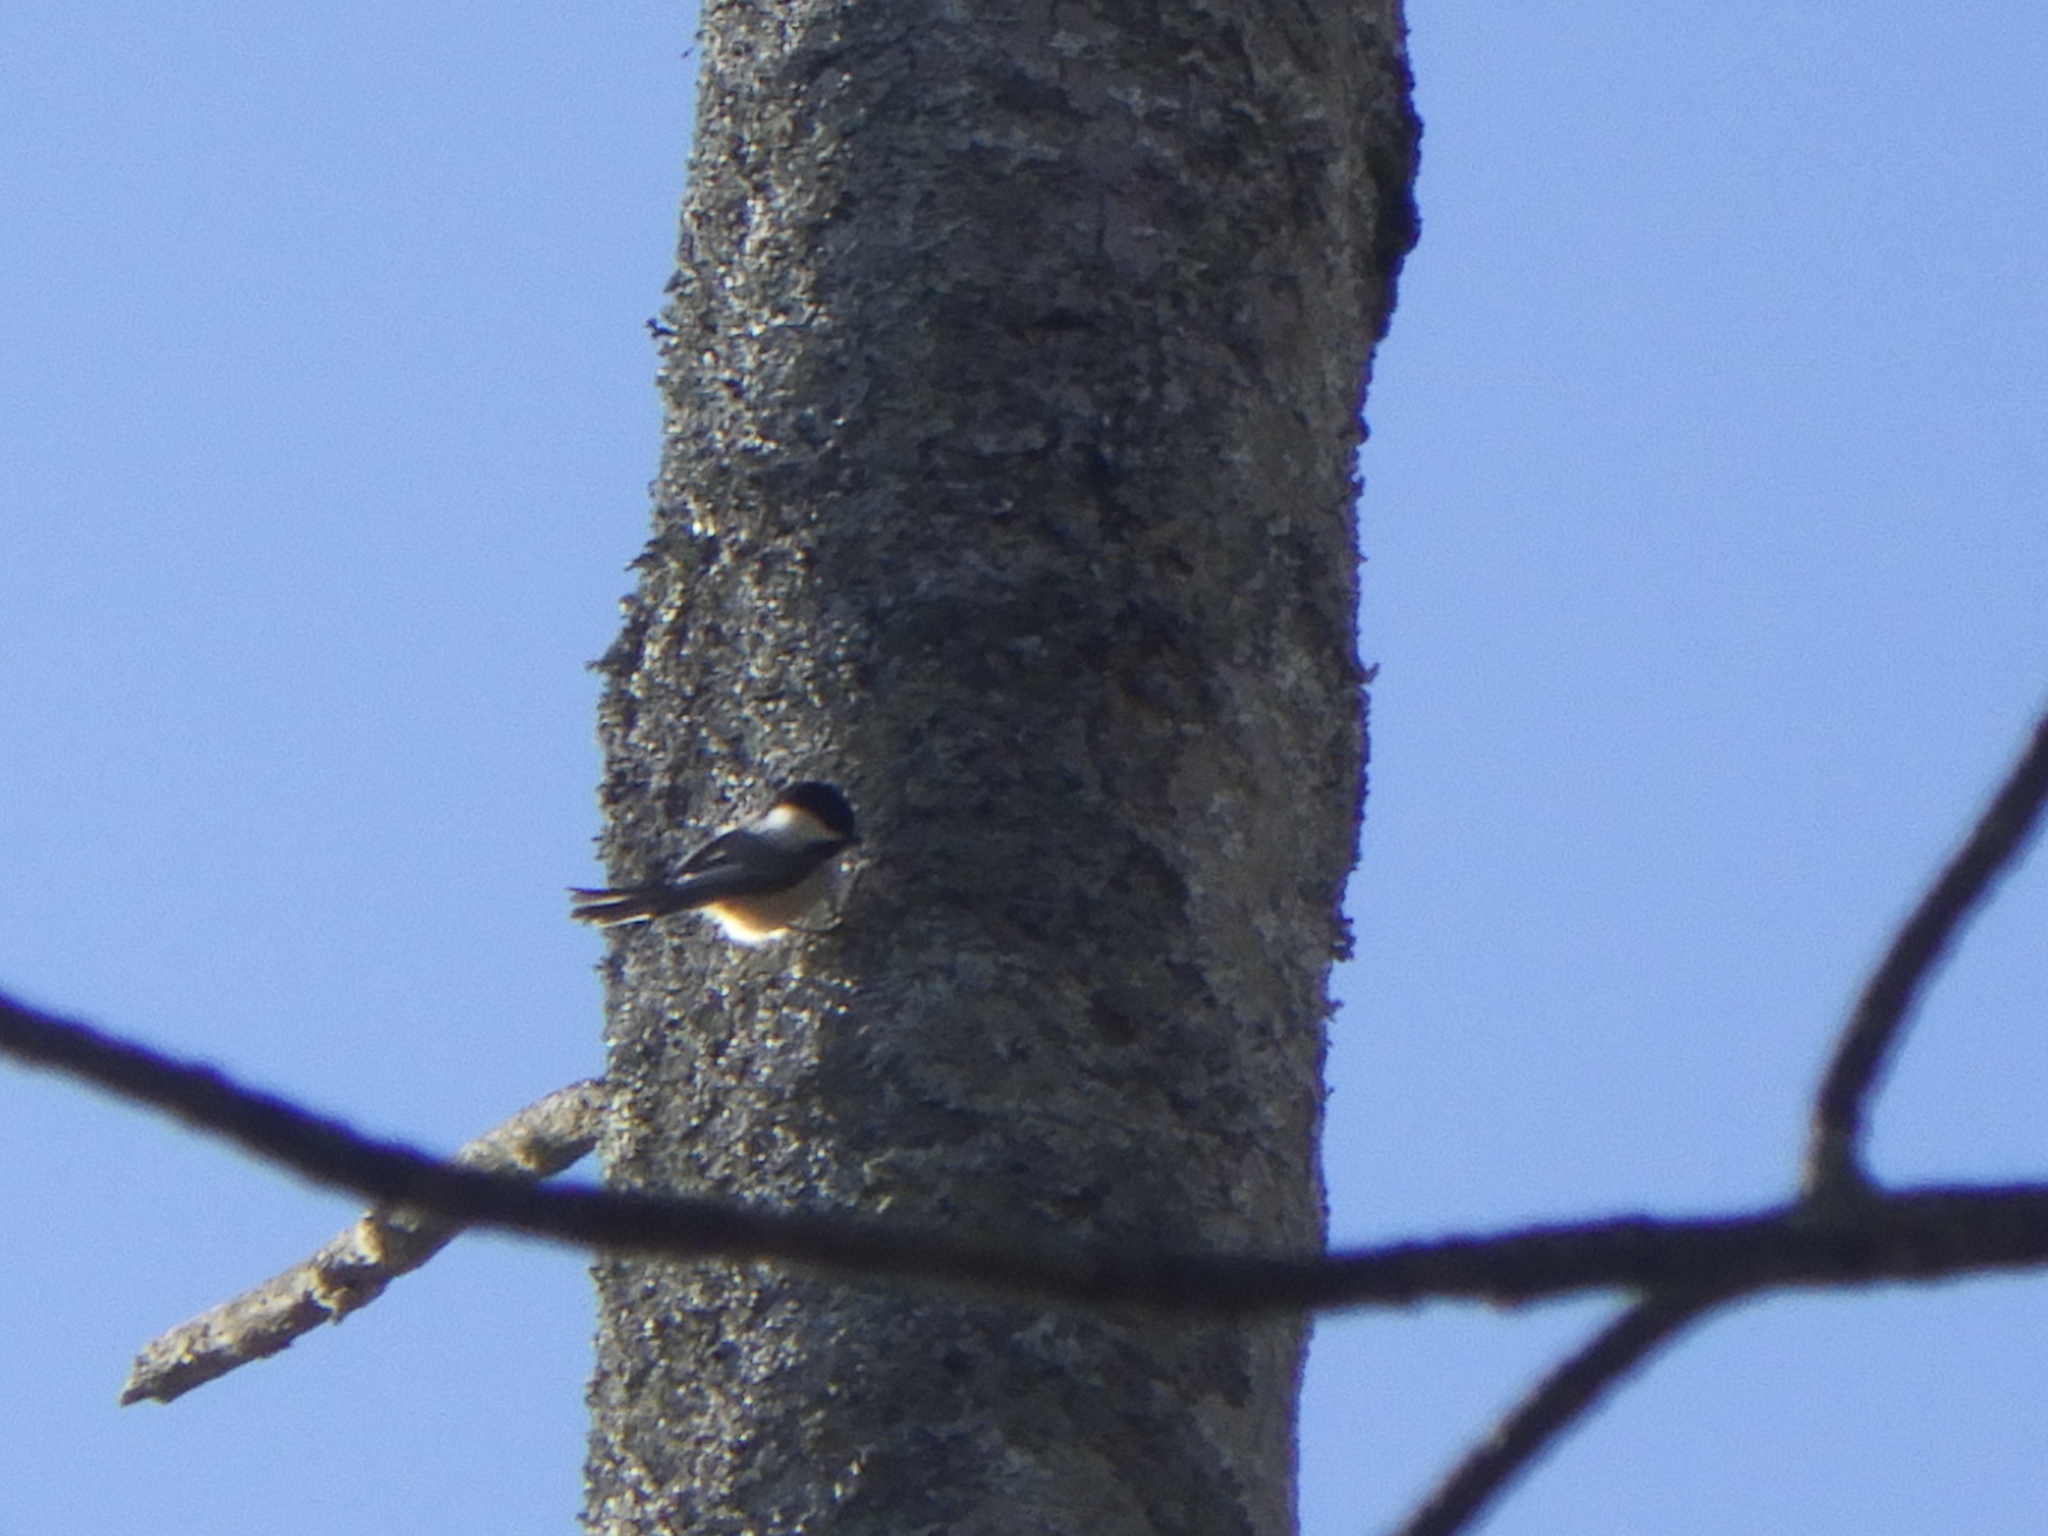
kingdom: Animalia
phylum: Chordata
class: Aves
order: Passeriformes
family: Paridae
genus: Poecile
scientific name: Poecile atricapillus
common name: Black-capped chickadee
